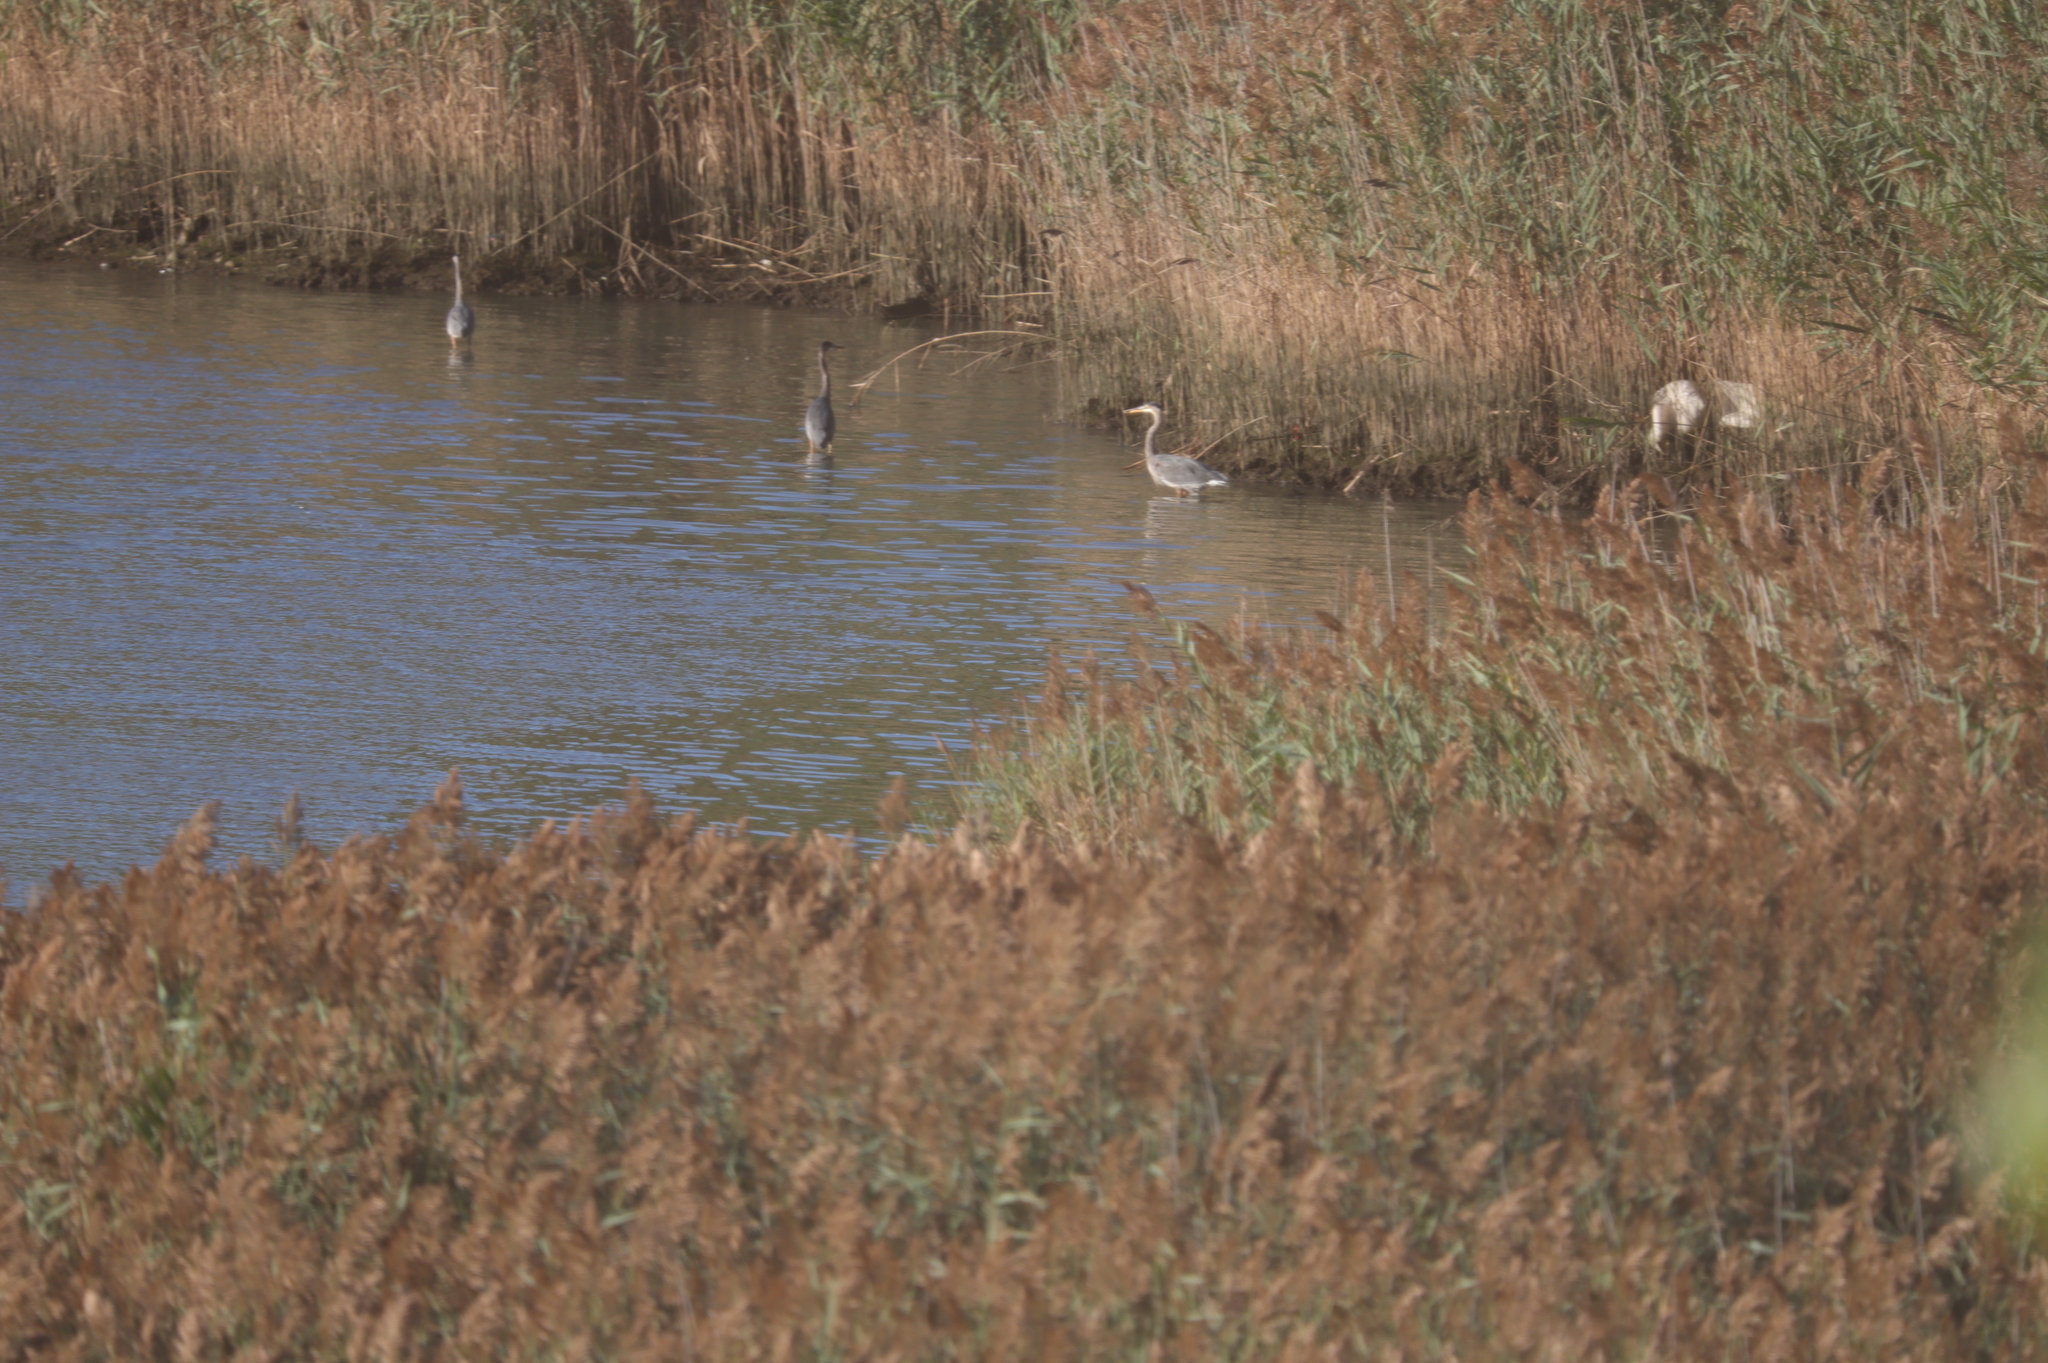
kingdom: Animalia
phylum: Chordata
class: Aves
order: Pelecaniformes
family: Ardeidae
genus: Ardea
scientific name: Ardea herodias
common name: Great blue heron
